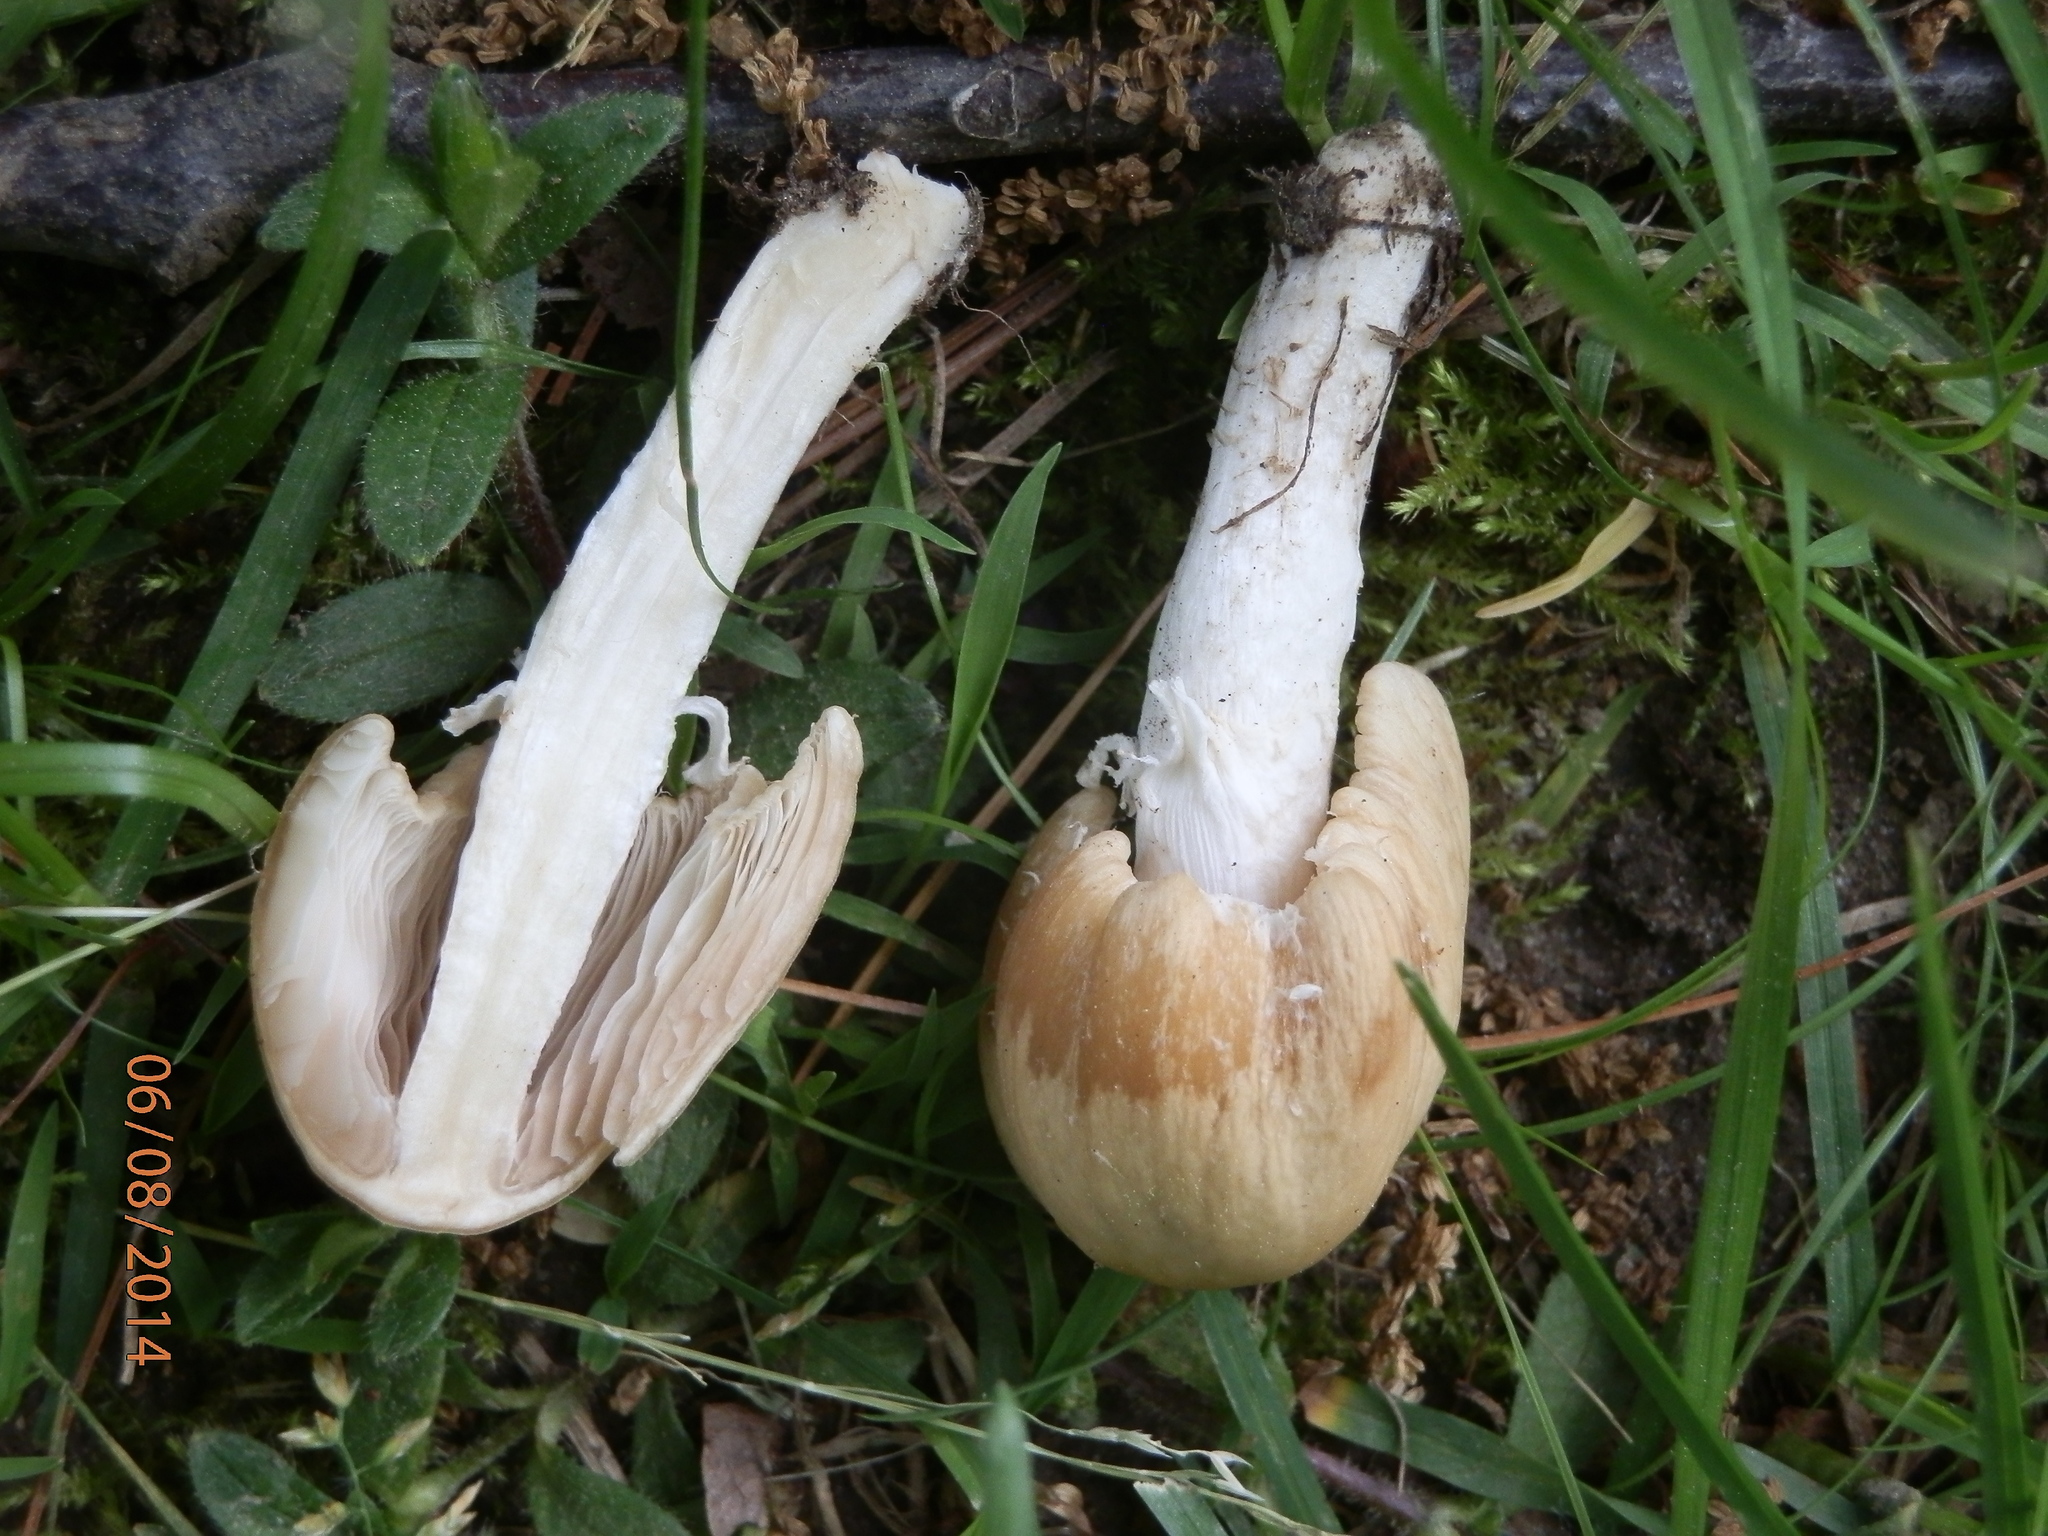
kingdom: Fungi
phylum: Basidiomycota
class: Agaricomycetes
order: Agaricales
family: Psathyrellaceae
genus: Psathyrella
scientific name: Psathyrella incerta
